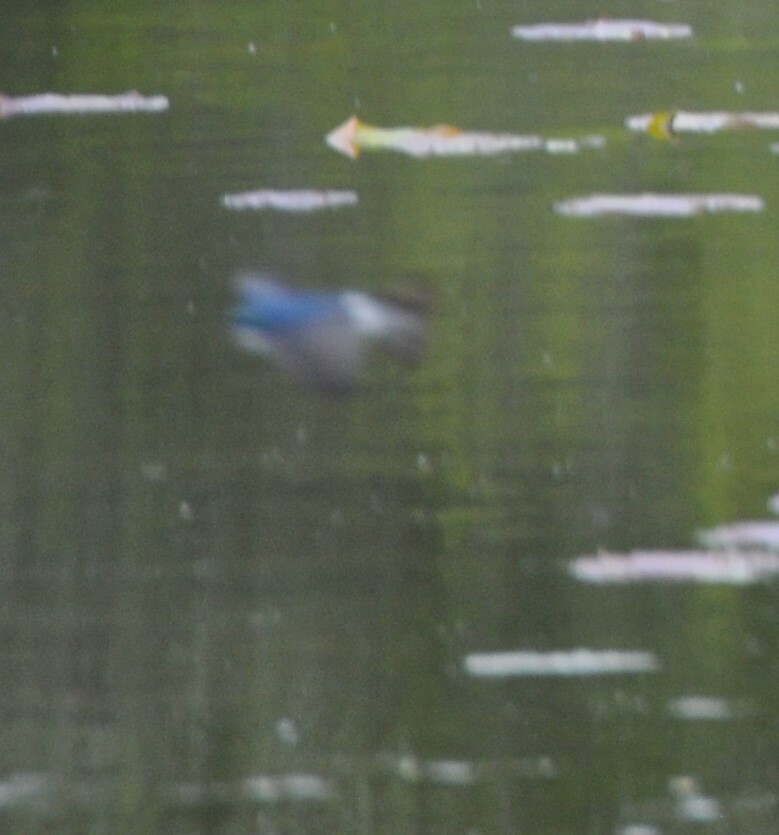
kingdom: Animalia
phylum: Chordata
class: Aves
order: Passeriformes
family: Hirundinidae
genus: Tachycineta
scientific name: Tachycineta bicolor
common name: Tree swallow
